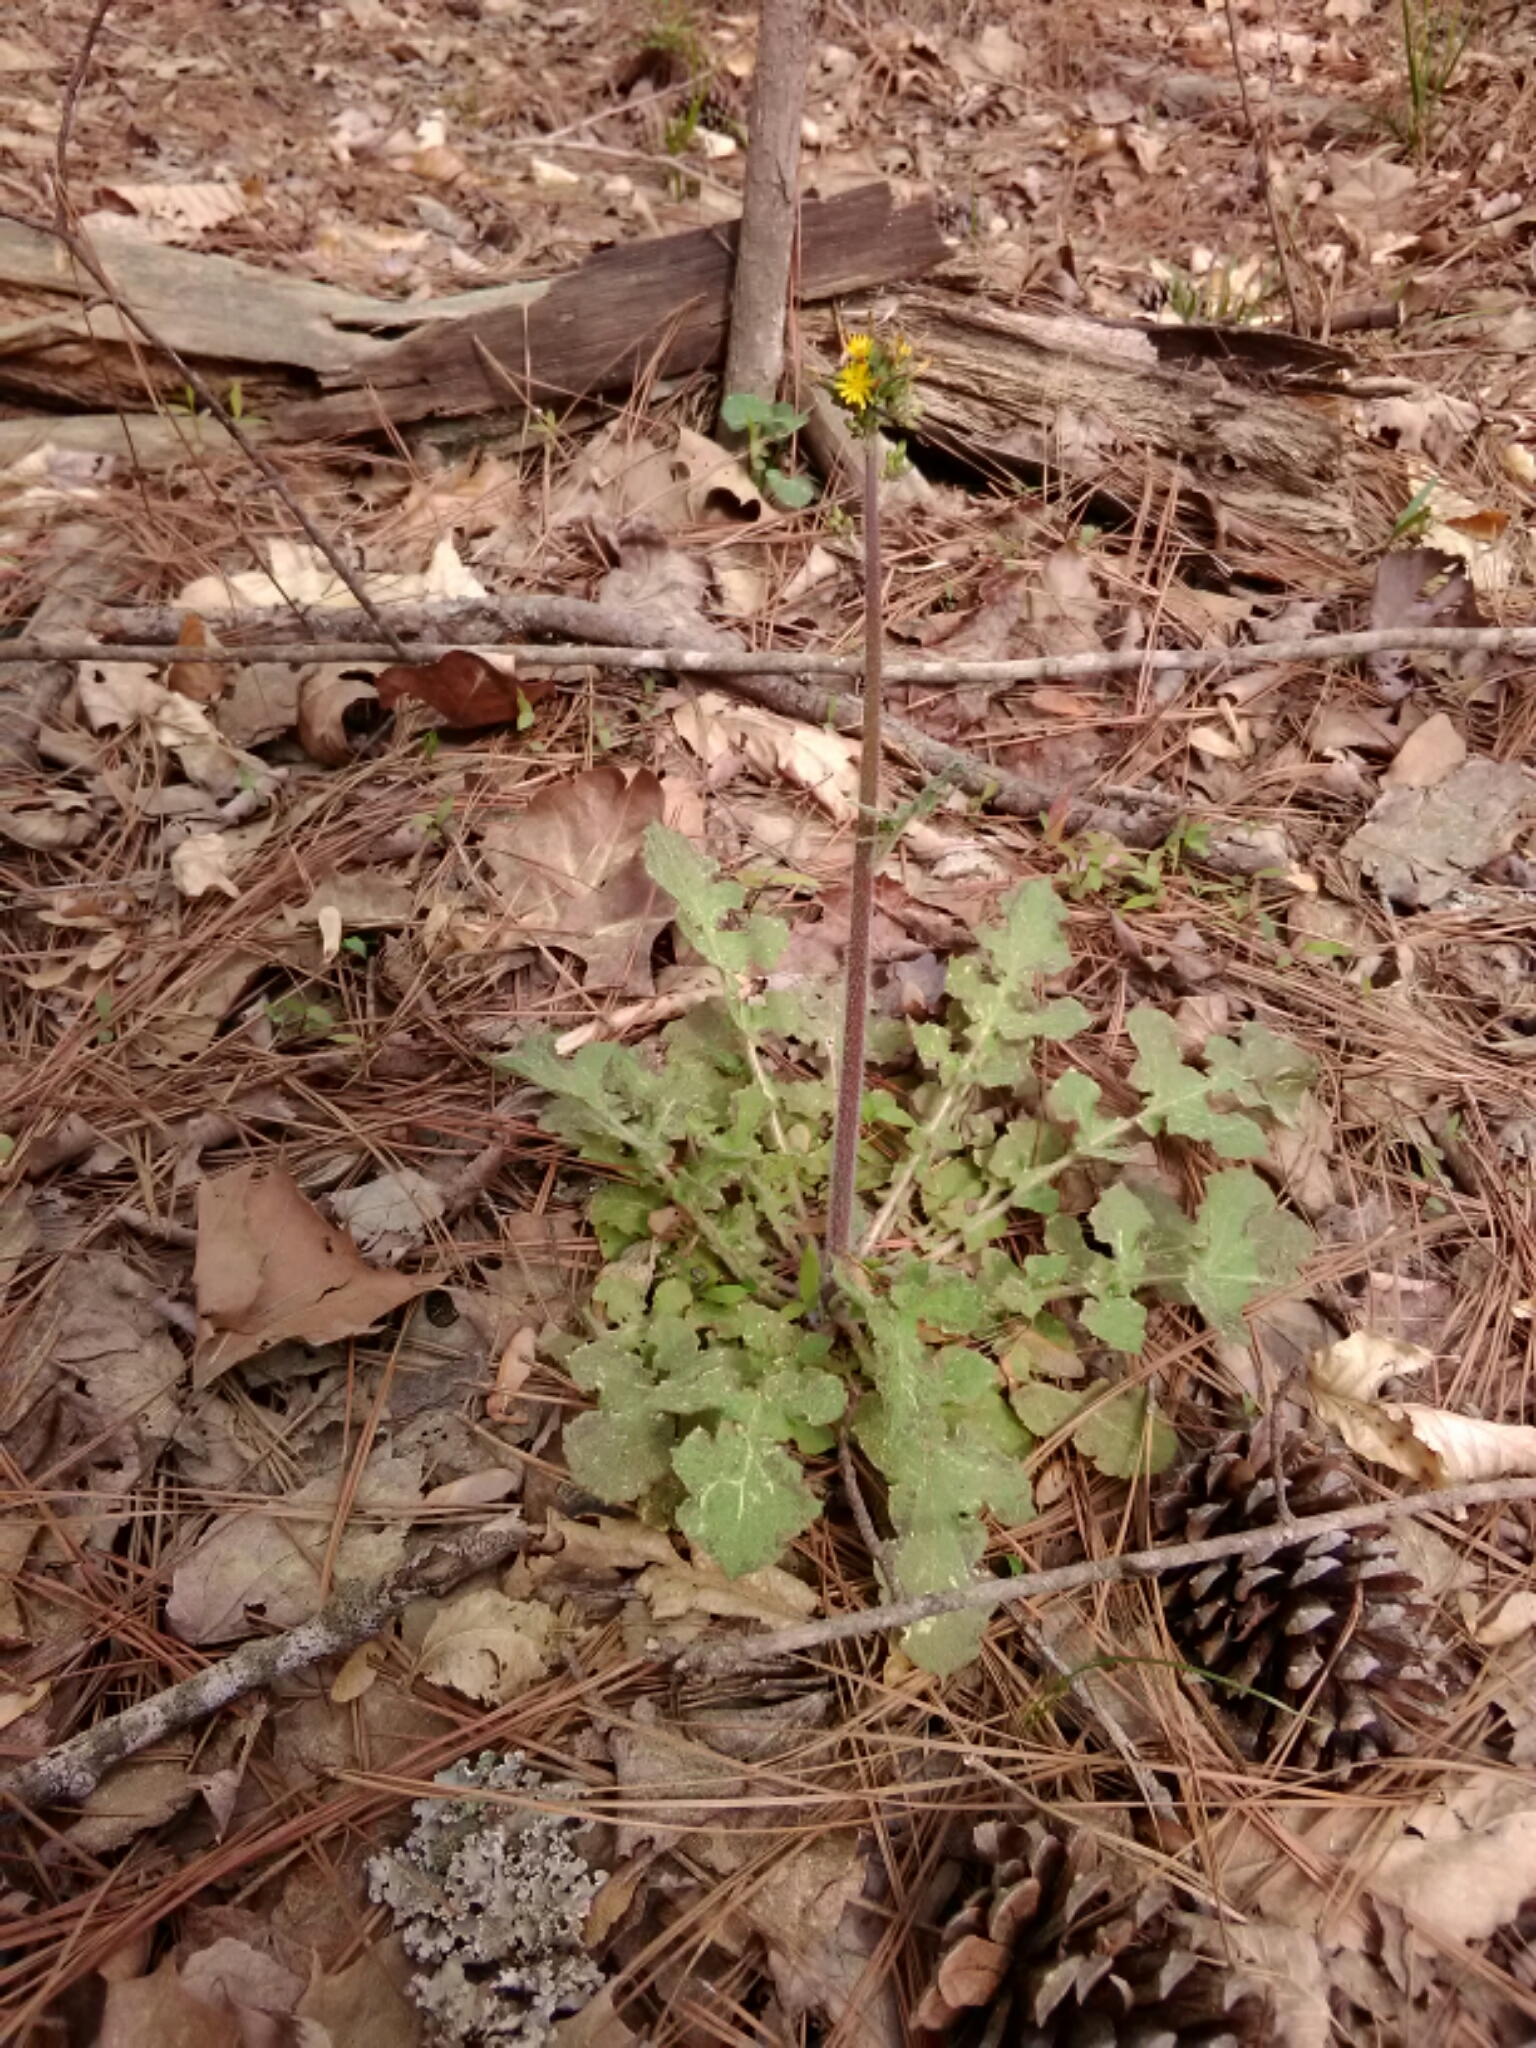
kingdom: Plantae
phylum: Tracheophyta
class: Magnoliopsida
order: Asterales
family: Asteraceae
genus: Youngia
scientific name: Youngia japonica
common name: Oriental false hawksbeard
